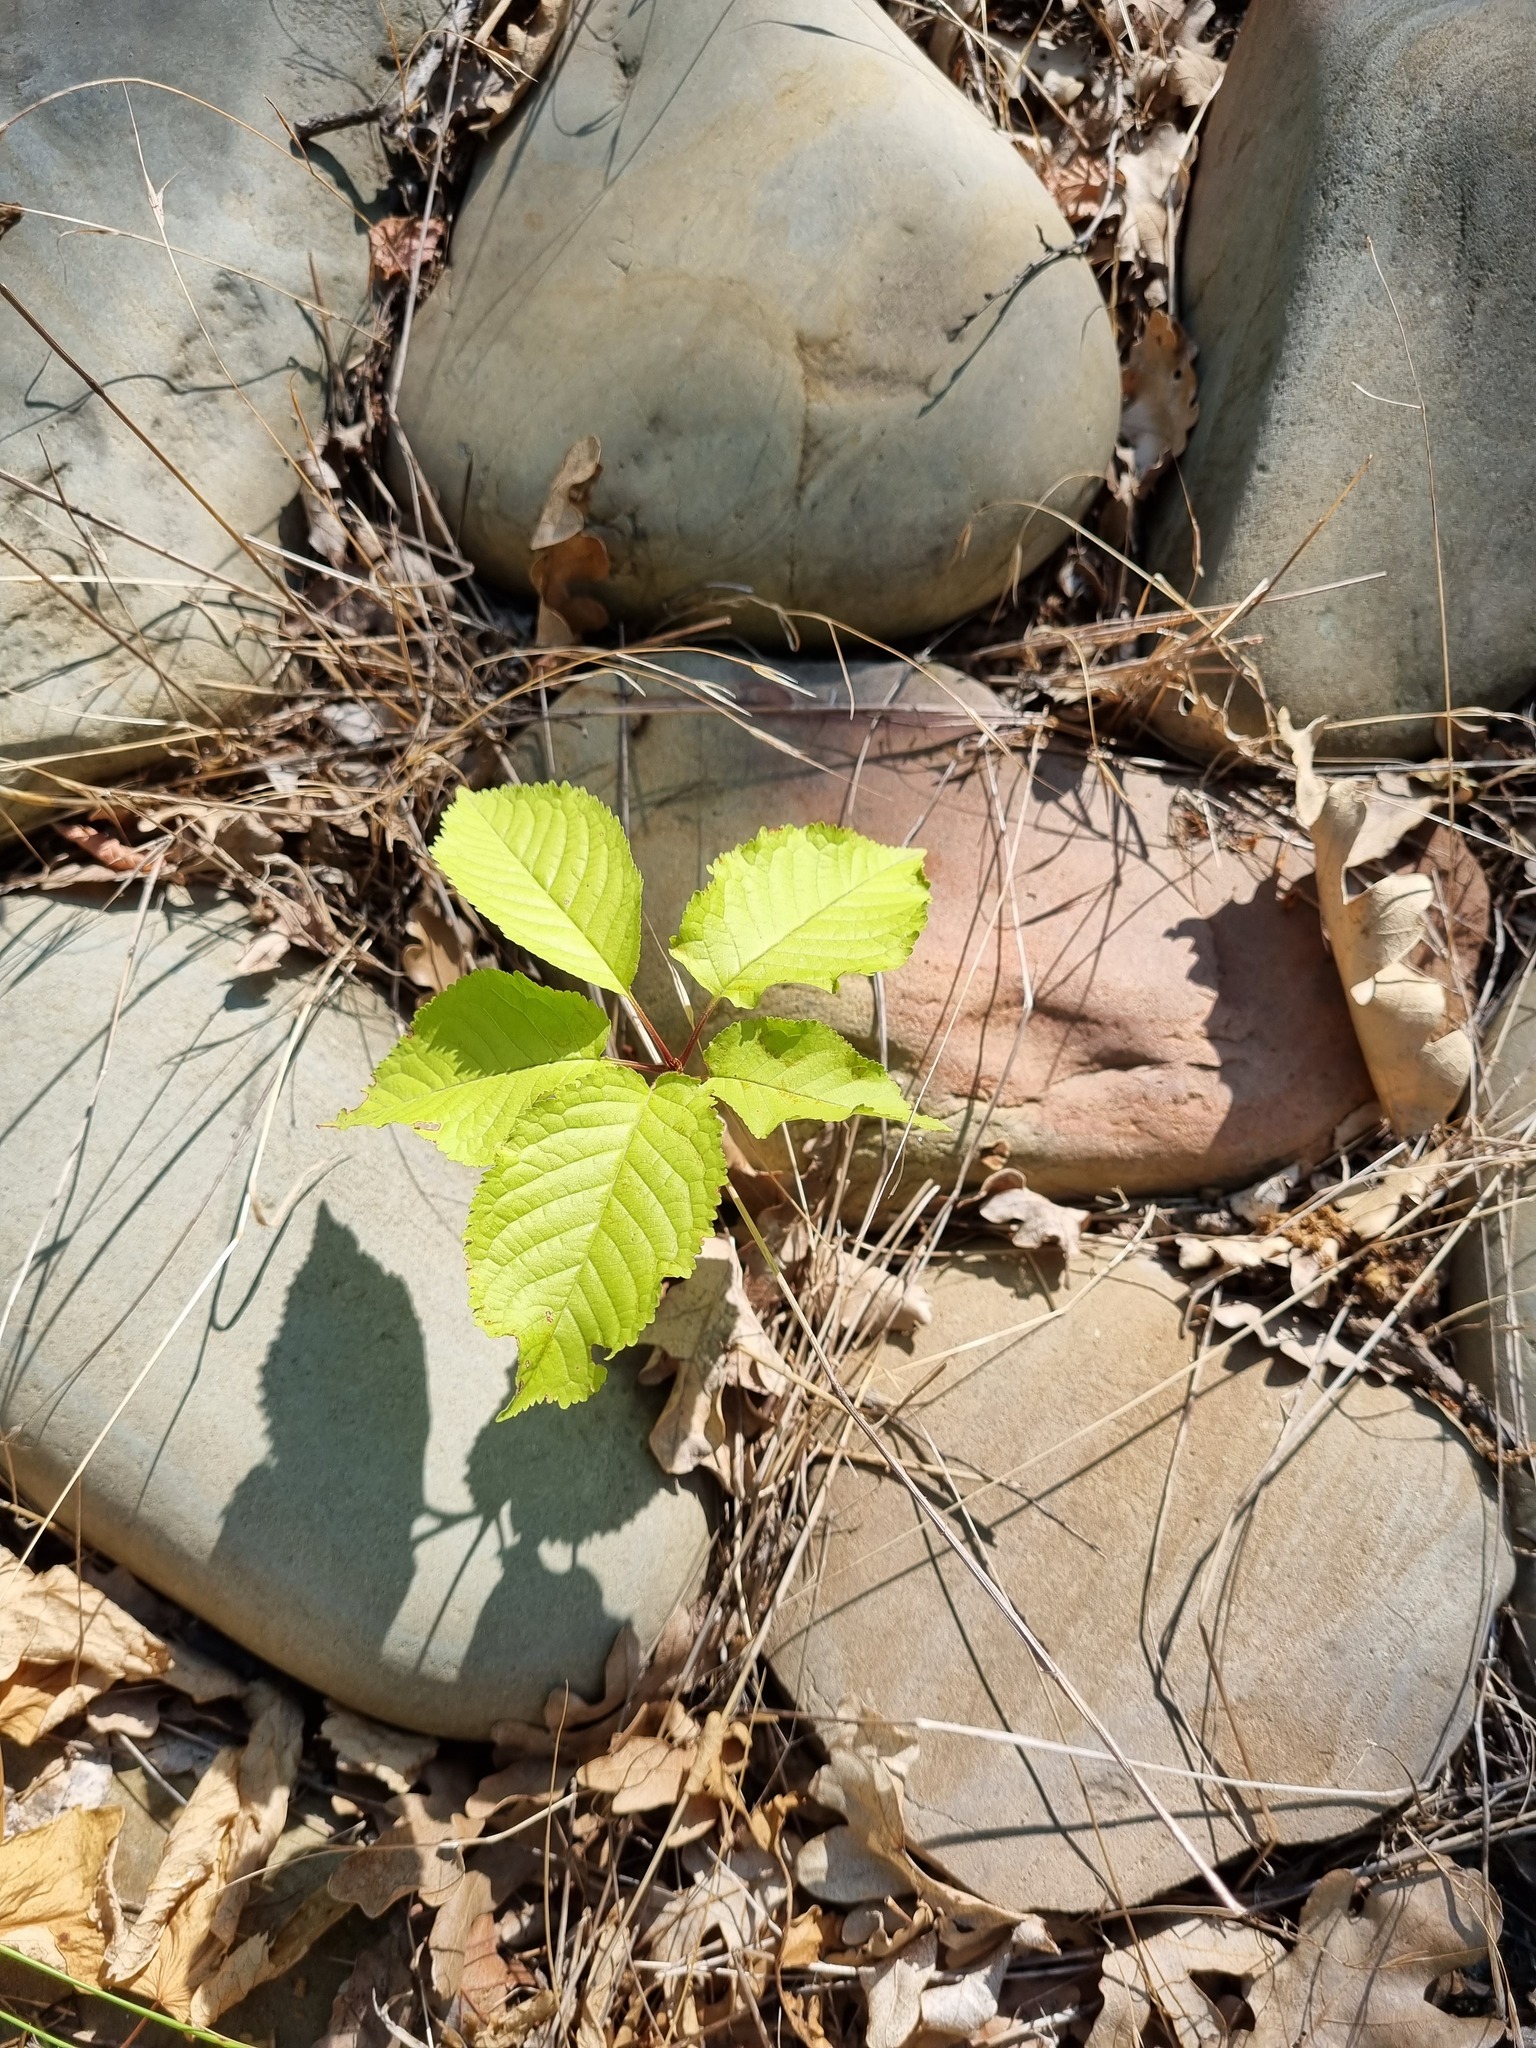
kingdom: Plantae
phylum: Tracheophyta
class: Magnoliopsida
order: Rosales
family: Rosaceae
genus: Prunus
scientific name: Prunus avium
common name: Sweet cherry
